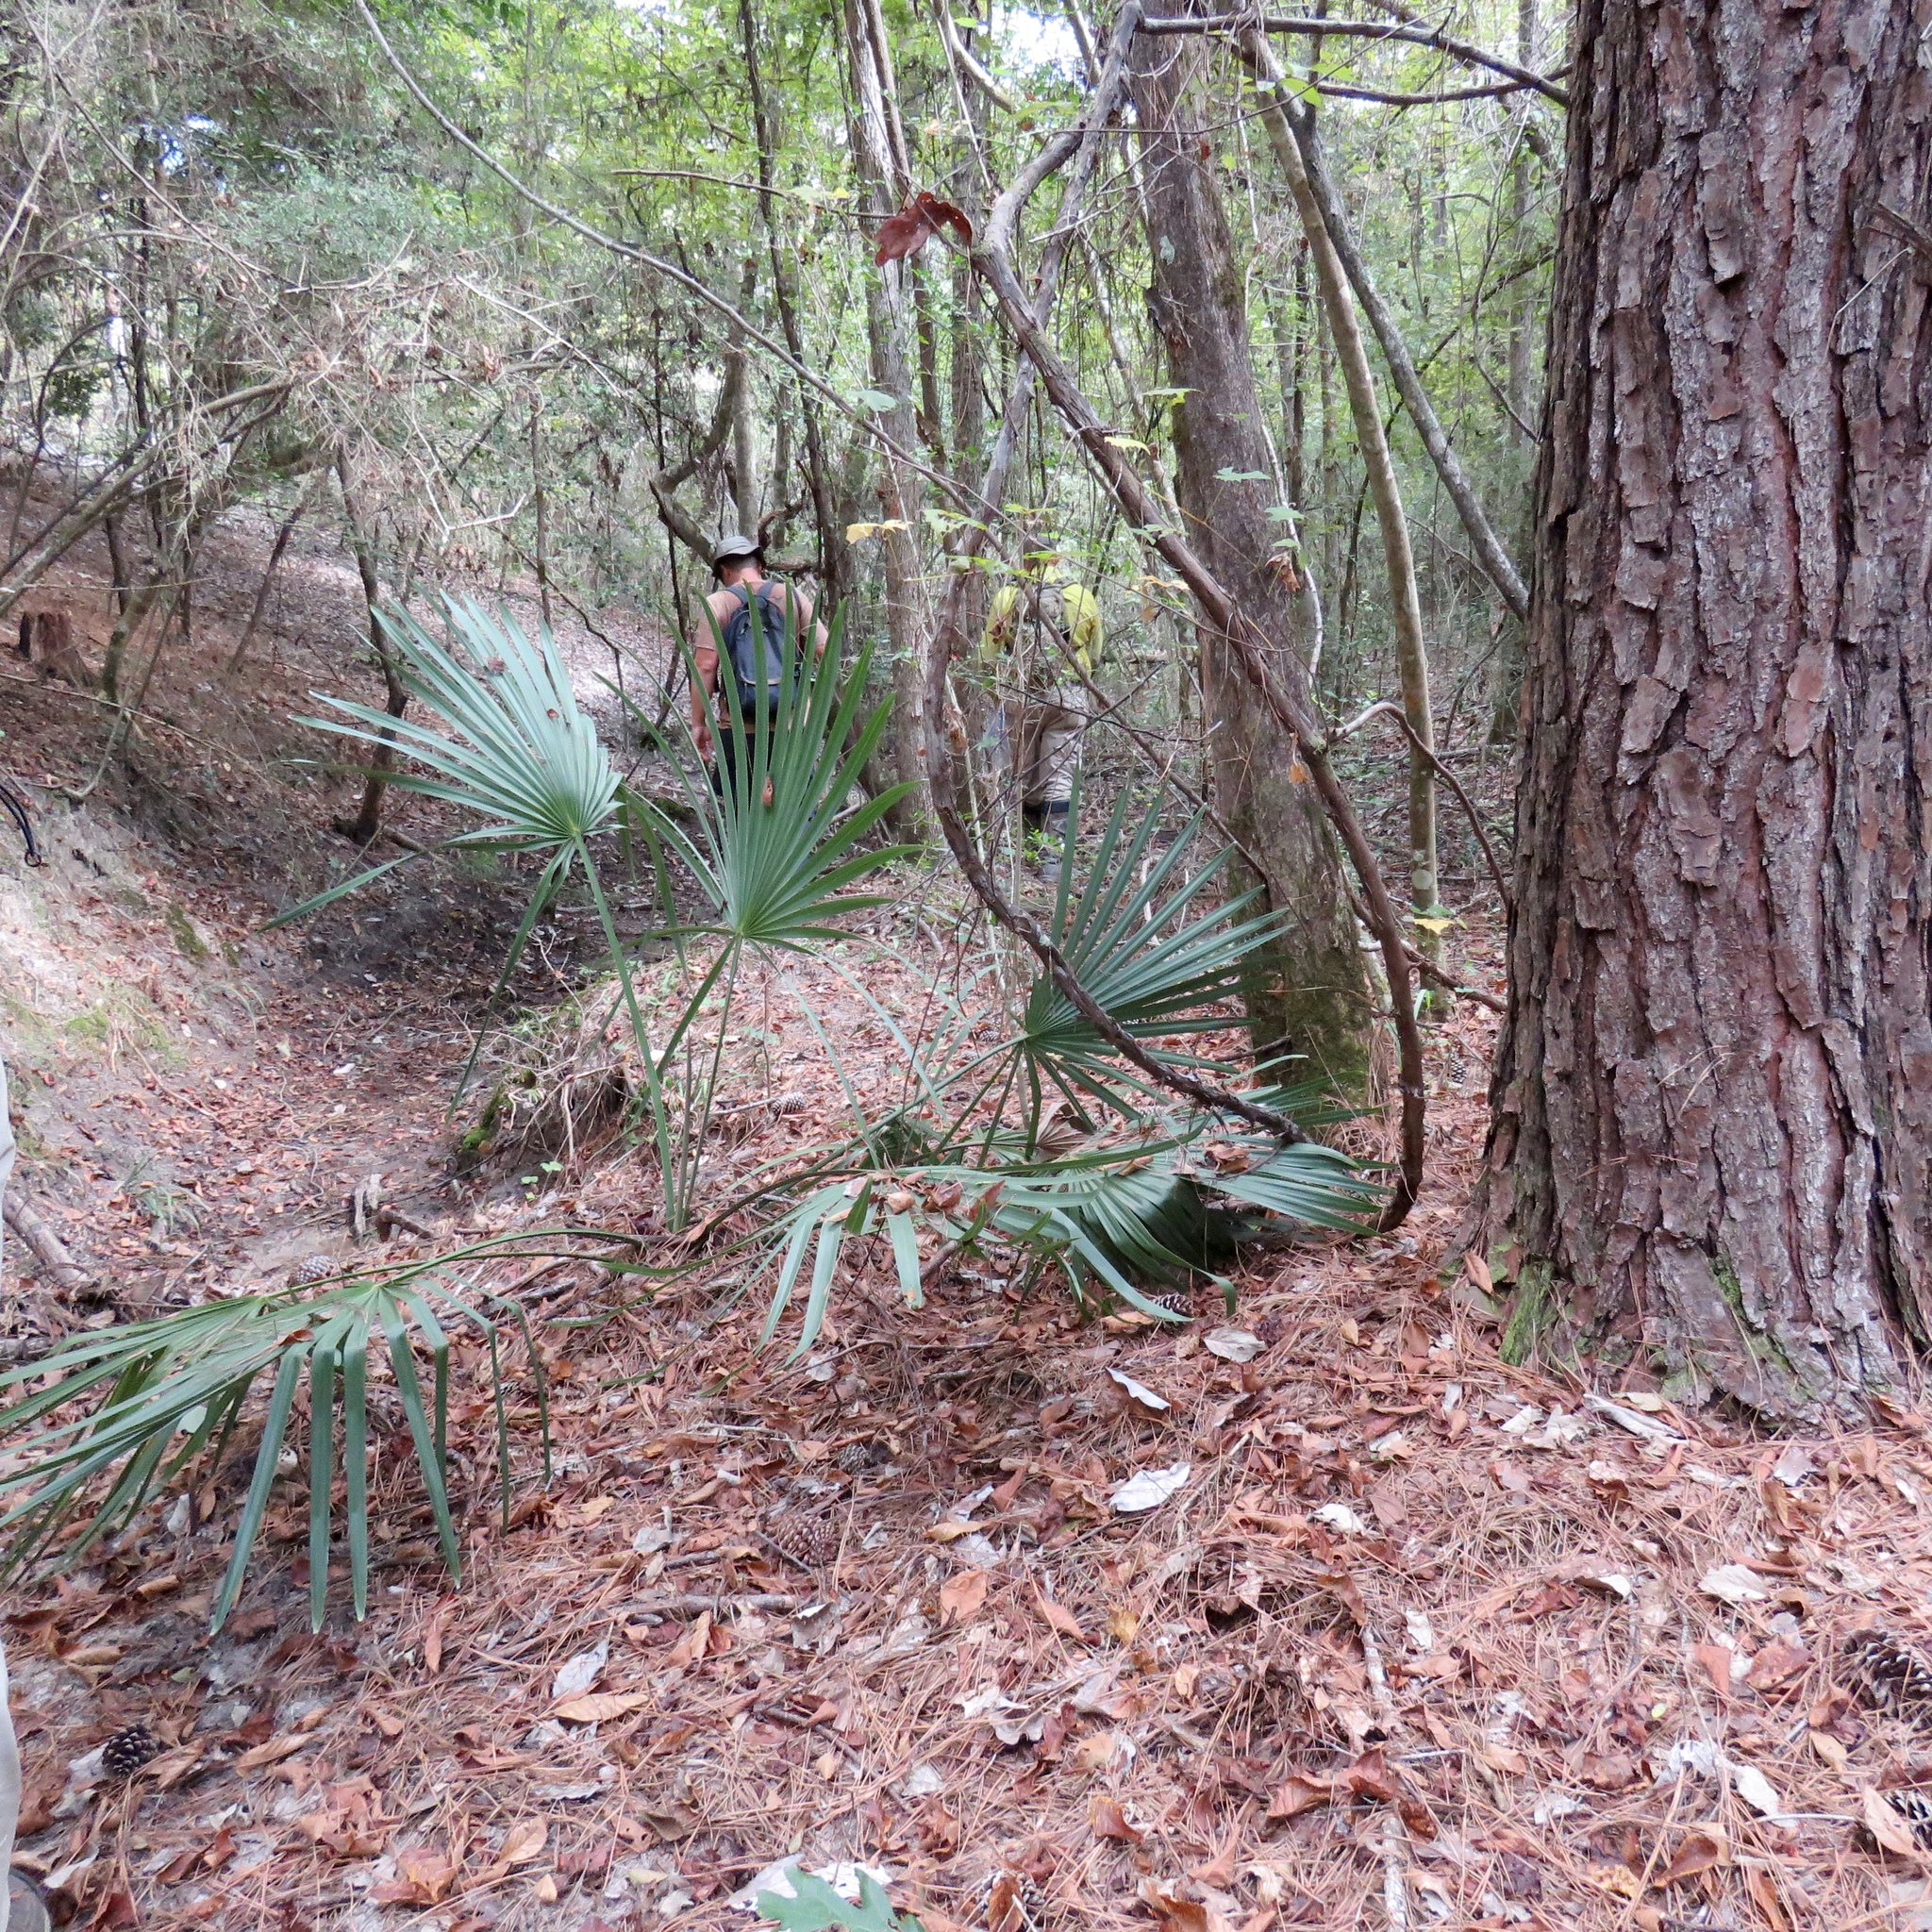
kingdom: Plantae
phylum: Tracheophyta
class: Liliopsida
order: Arecales
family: Arecaceae
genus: Sabal
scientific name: Sabal minor
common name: Dwarf palmetto
